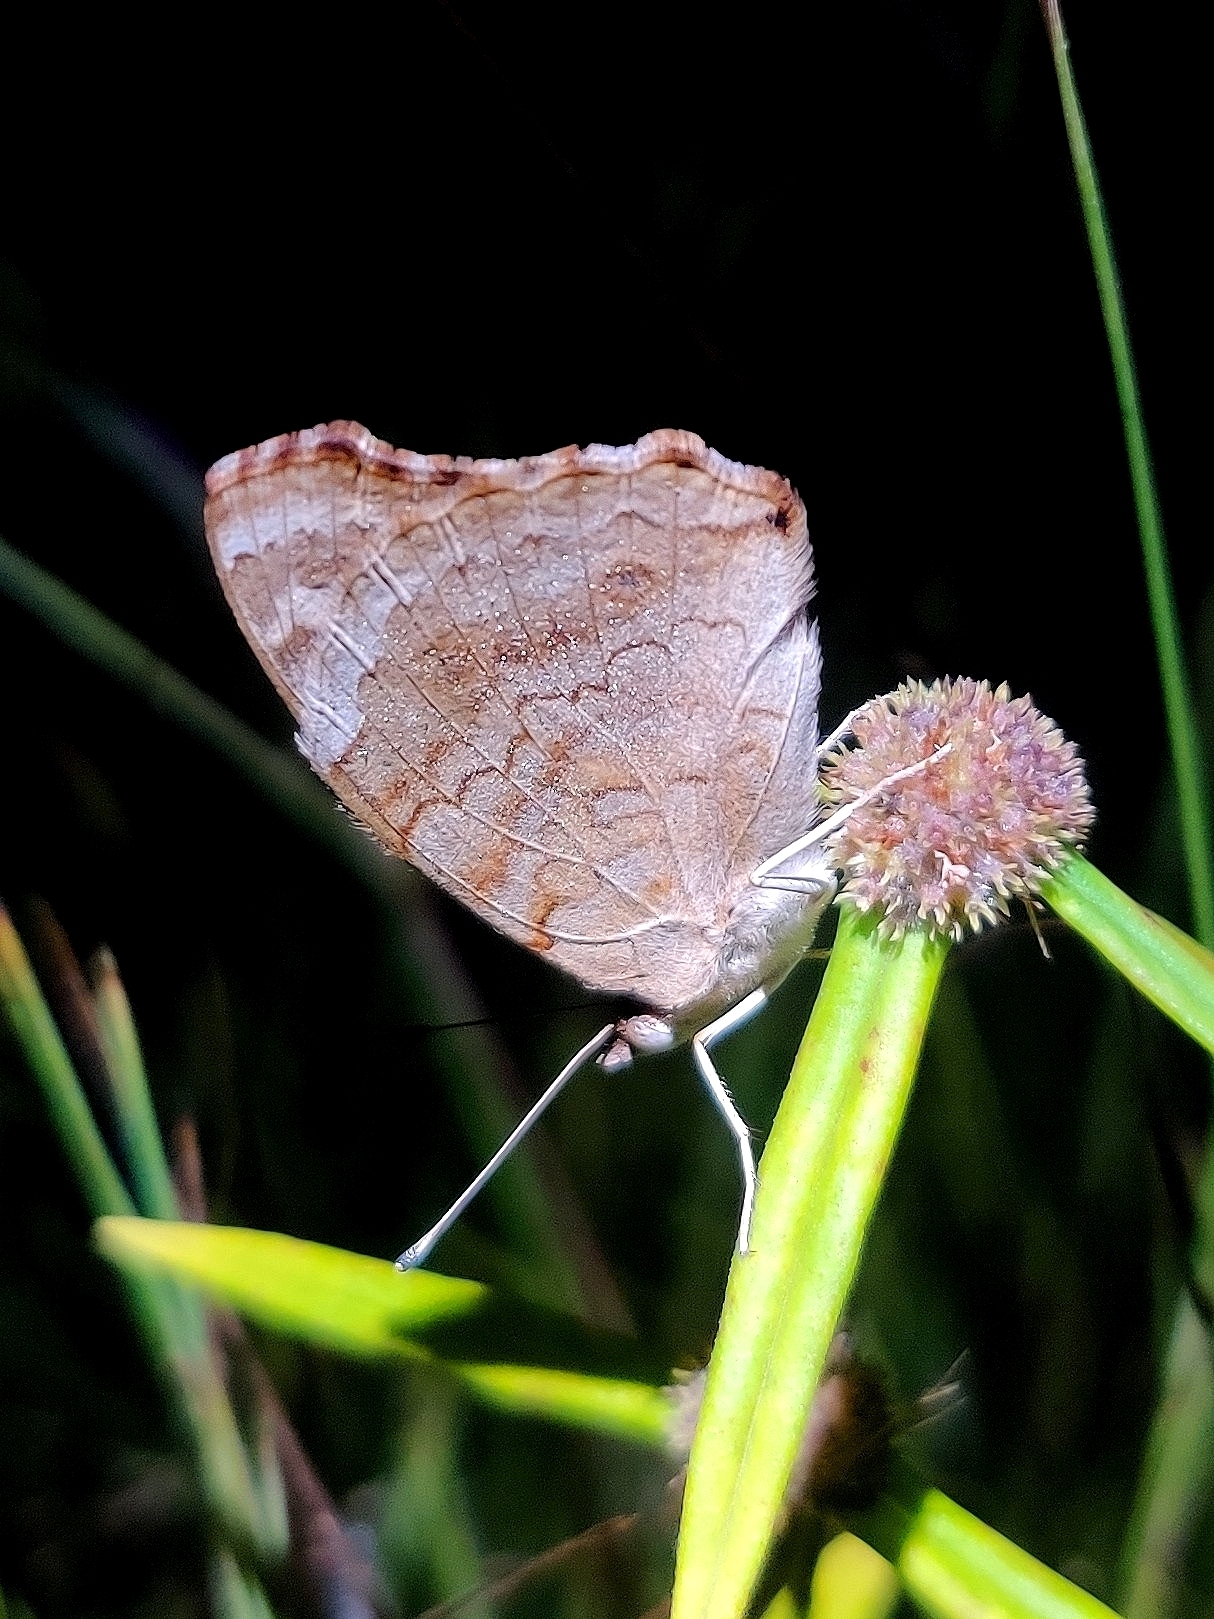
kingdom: Animalia
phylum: Arthropoda
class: Insecta
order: Lepidoptera
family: Nymphalidae
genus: Junonia
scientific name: Junonia orithya
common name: Blue pansy
